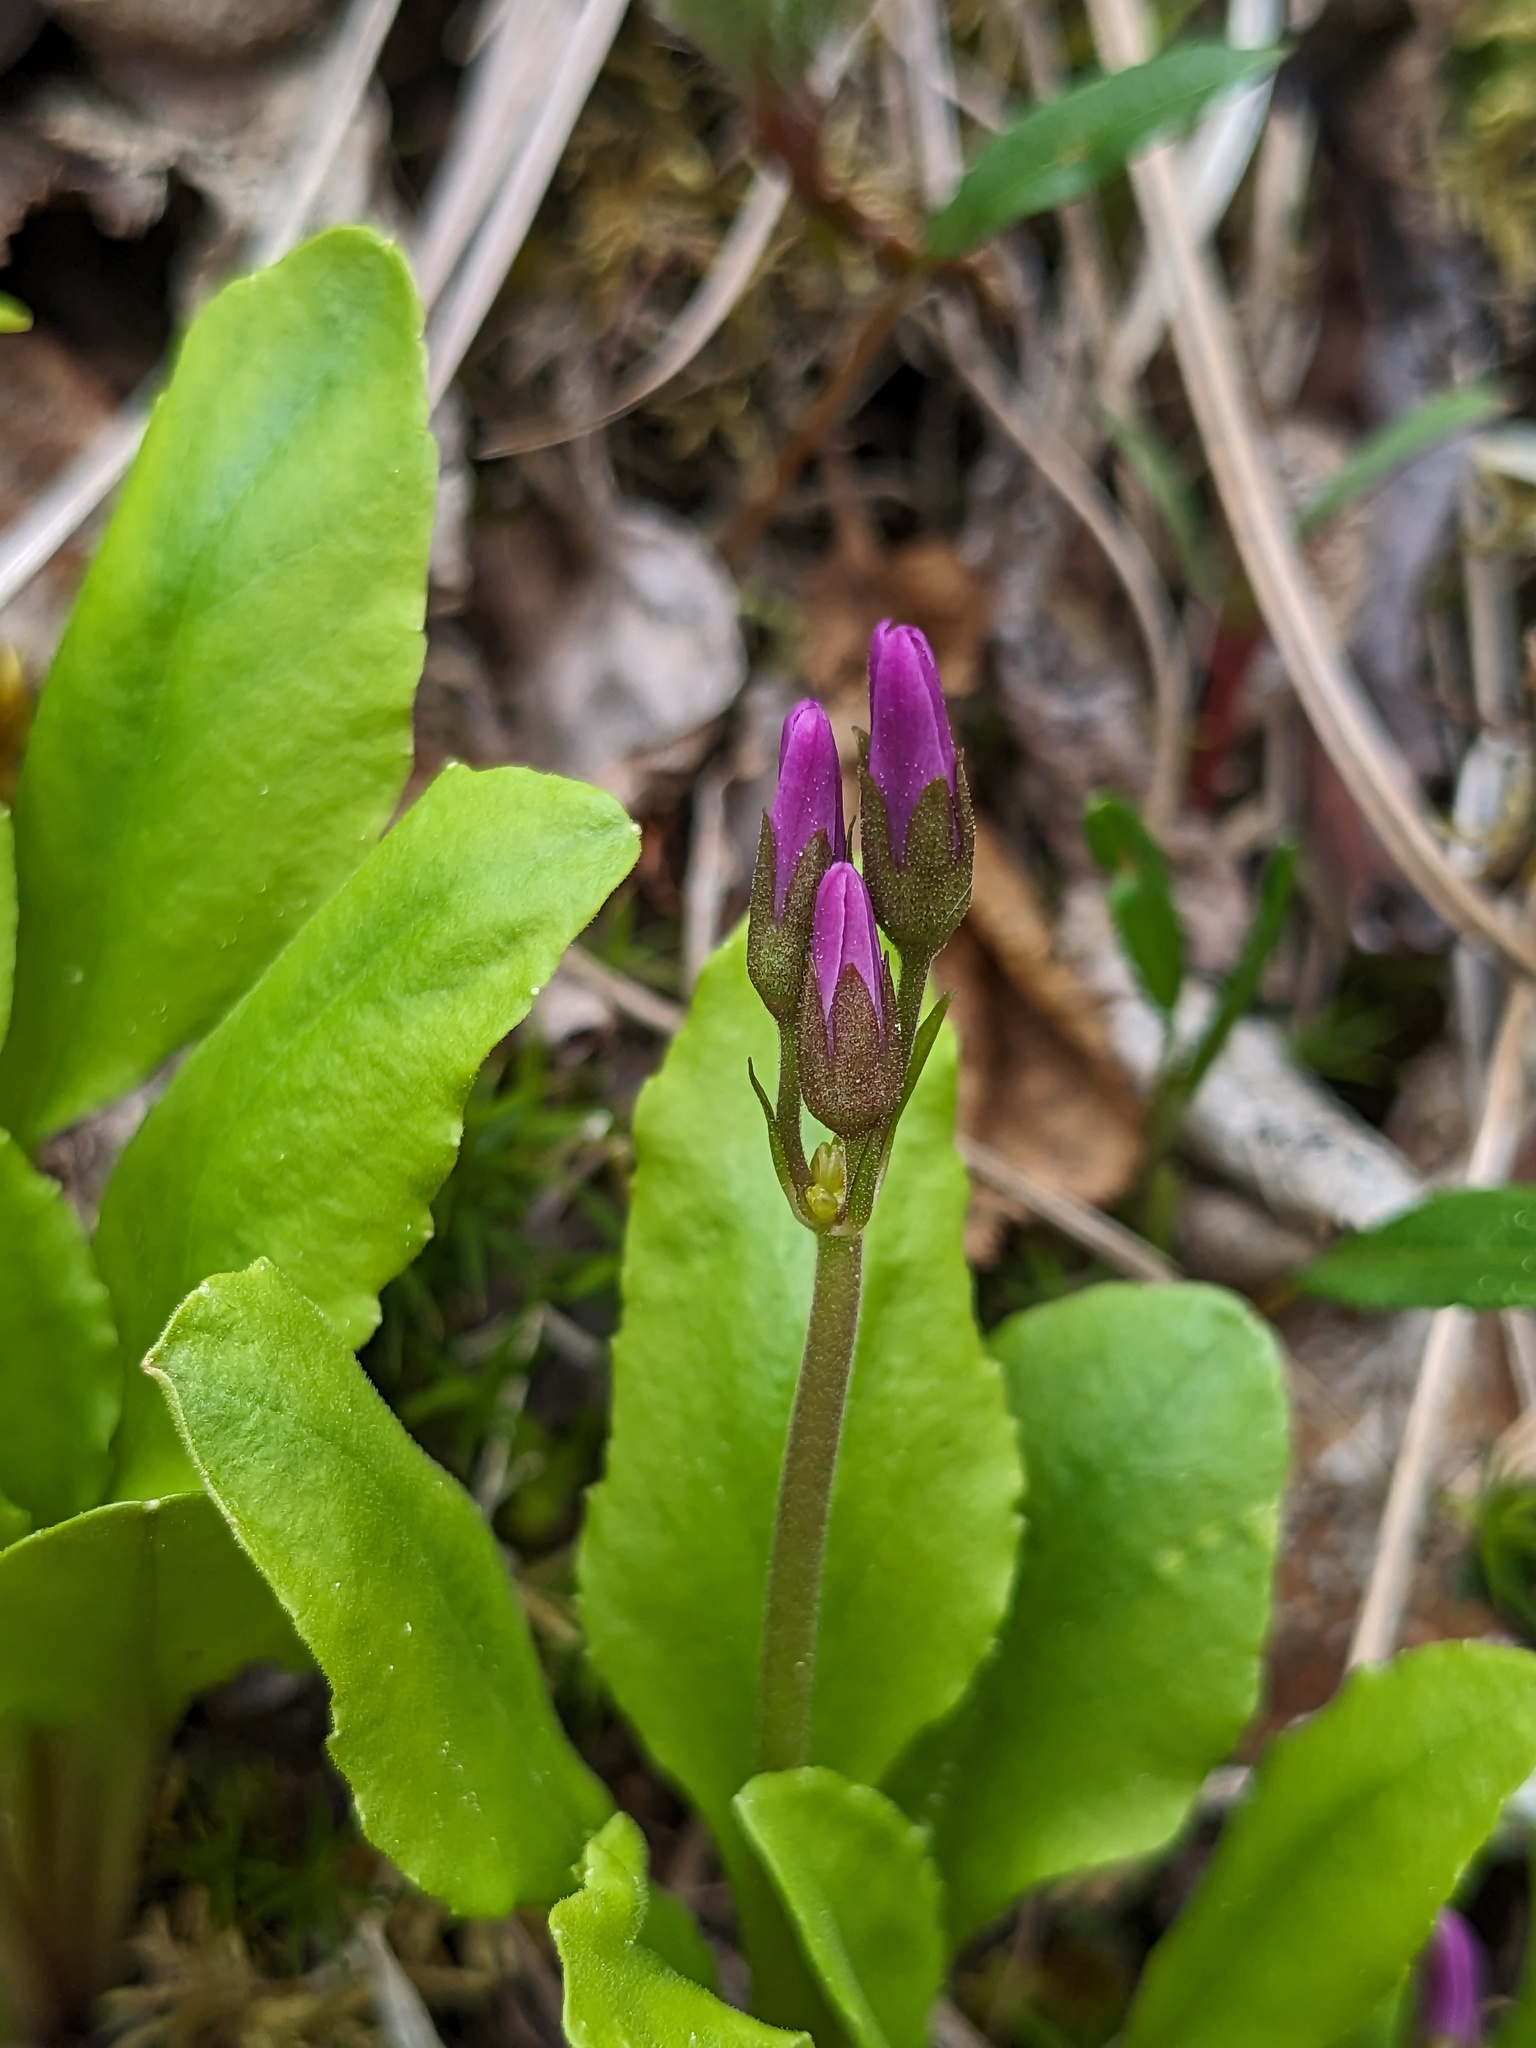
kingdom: Plantae
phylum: Tracheophyta
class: Magnoliopsida
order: Ericales
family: Primulaceae
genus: Dodecatheon
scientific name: Dodecatheon frigidum
